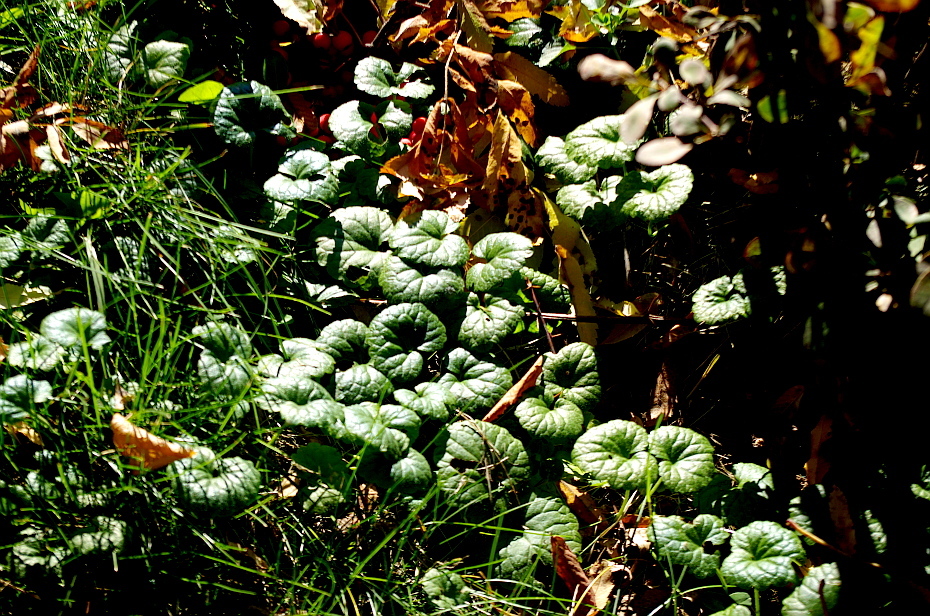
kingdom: Plantae
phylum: Tracheophyta
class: Magnoliopsida
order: Lamiales
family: Lamiaceae
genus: Glechoma
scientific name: Glechoma hederacea
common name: Ground ivy
